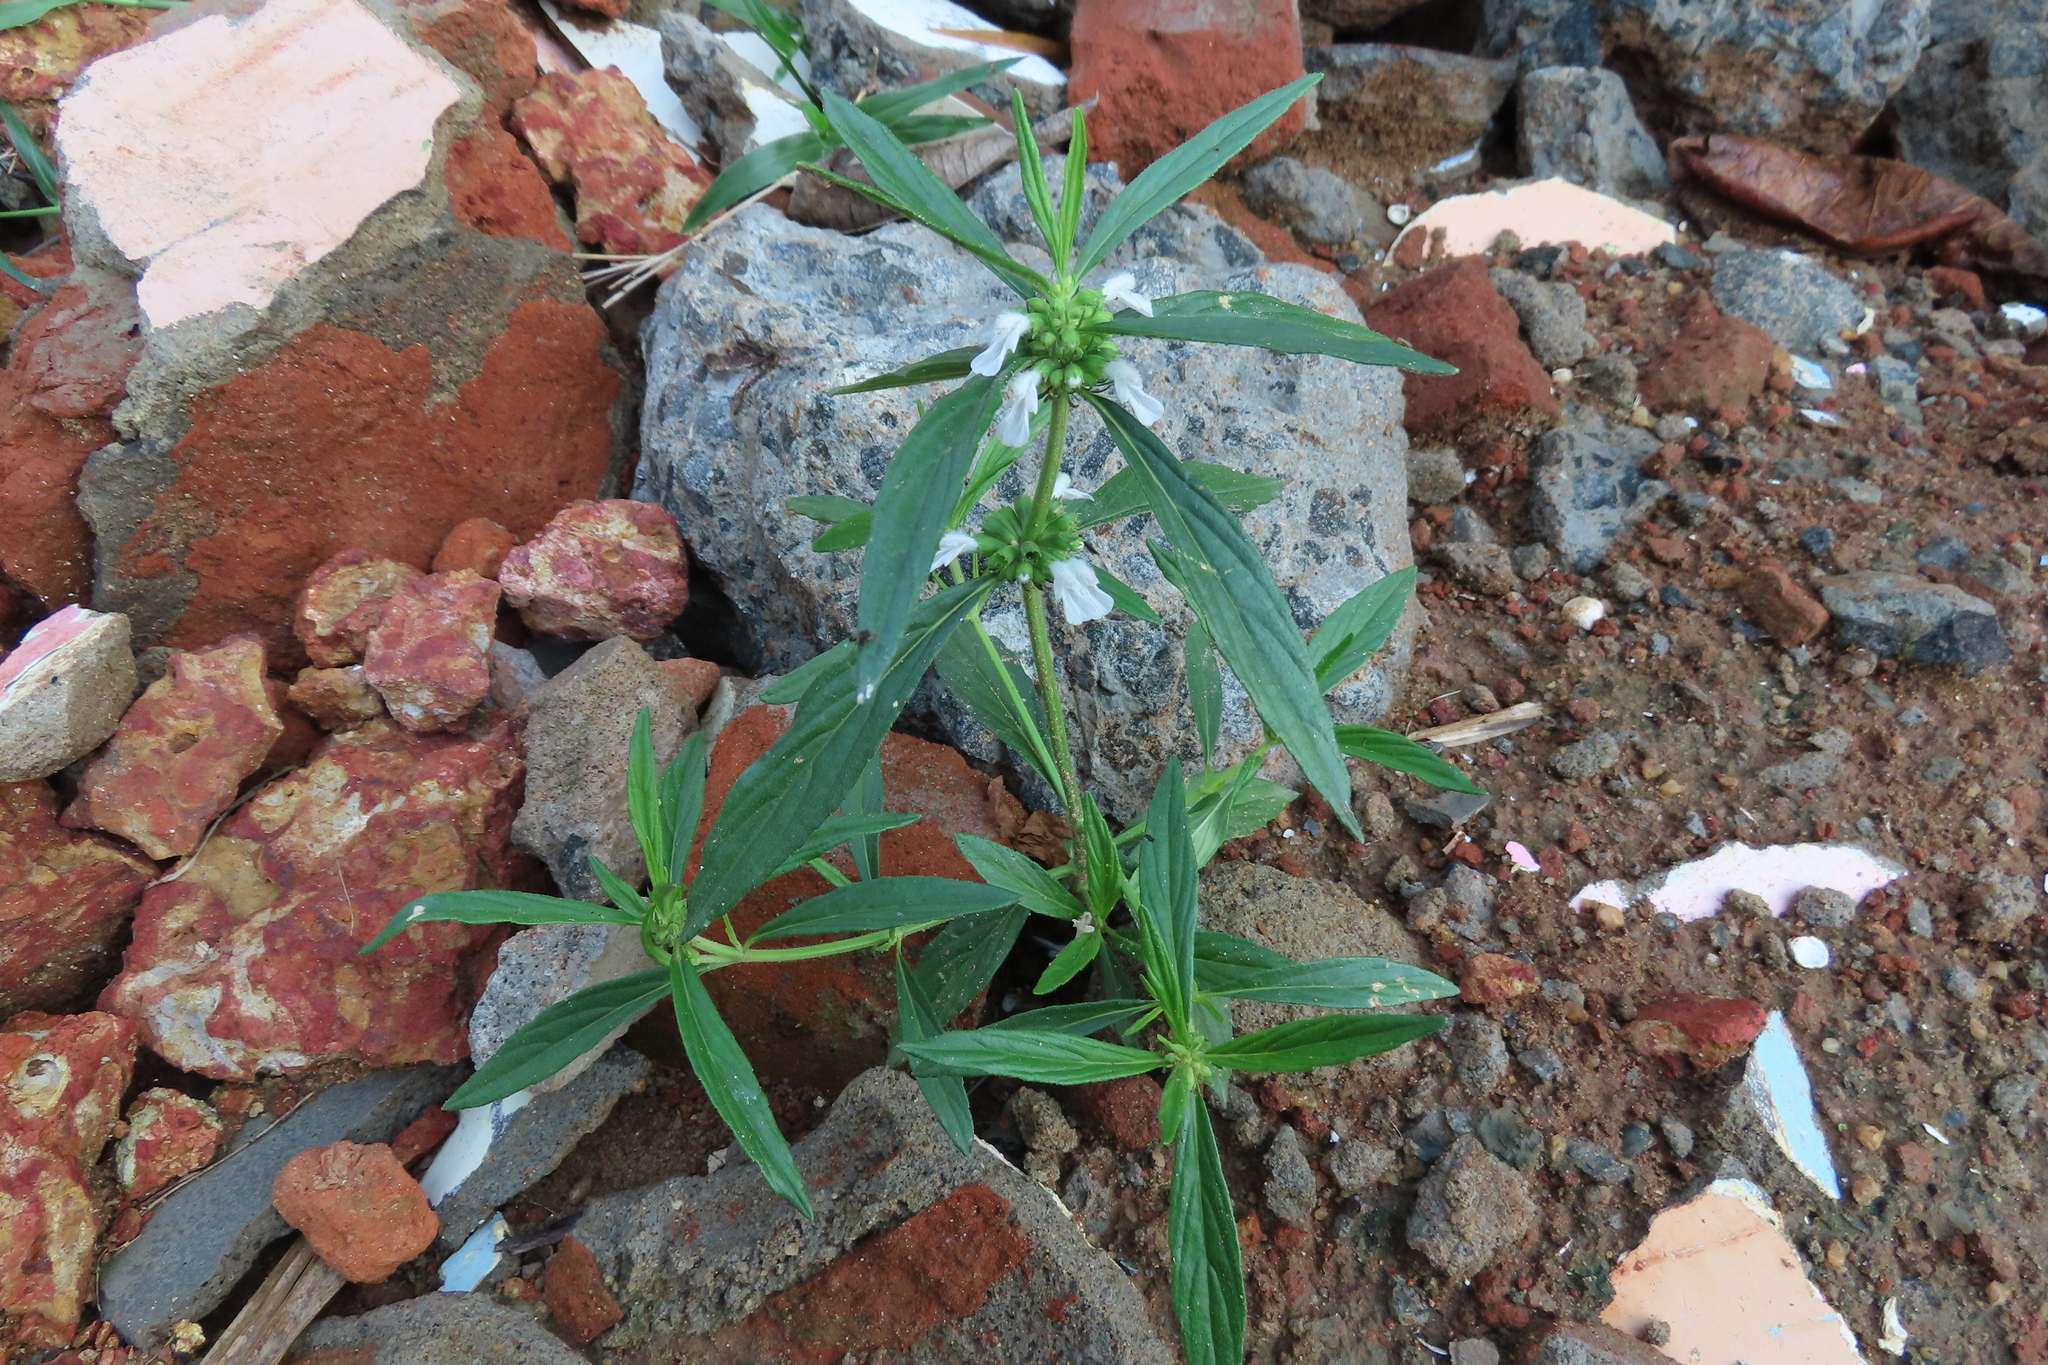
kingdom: Plantae
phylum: Tracheophyta
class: Magnoliopsida
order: Lamiales
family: Lamiaceae
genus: Leucas
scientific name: Leucas aspera
